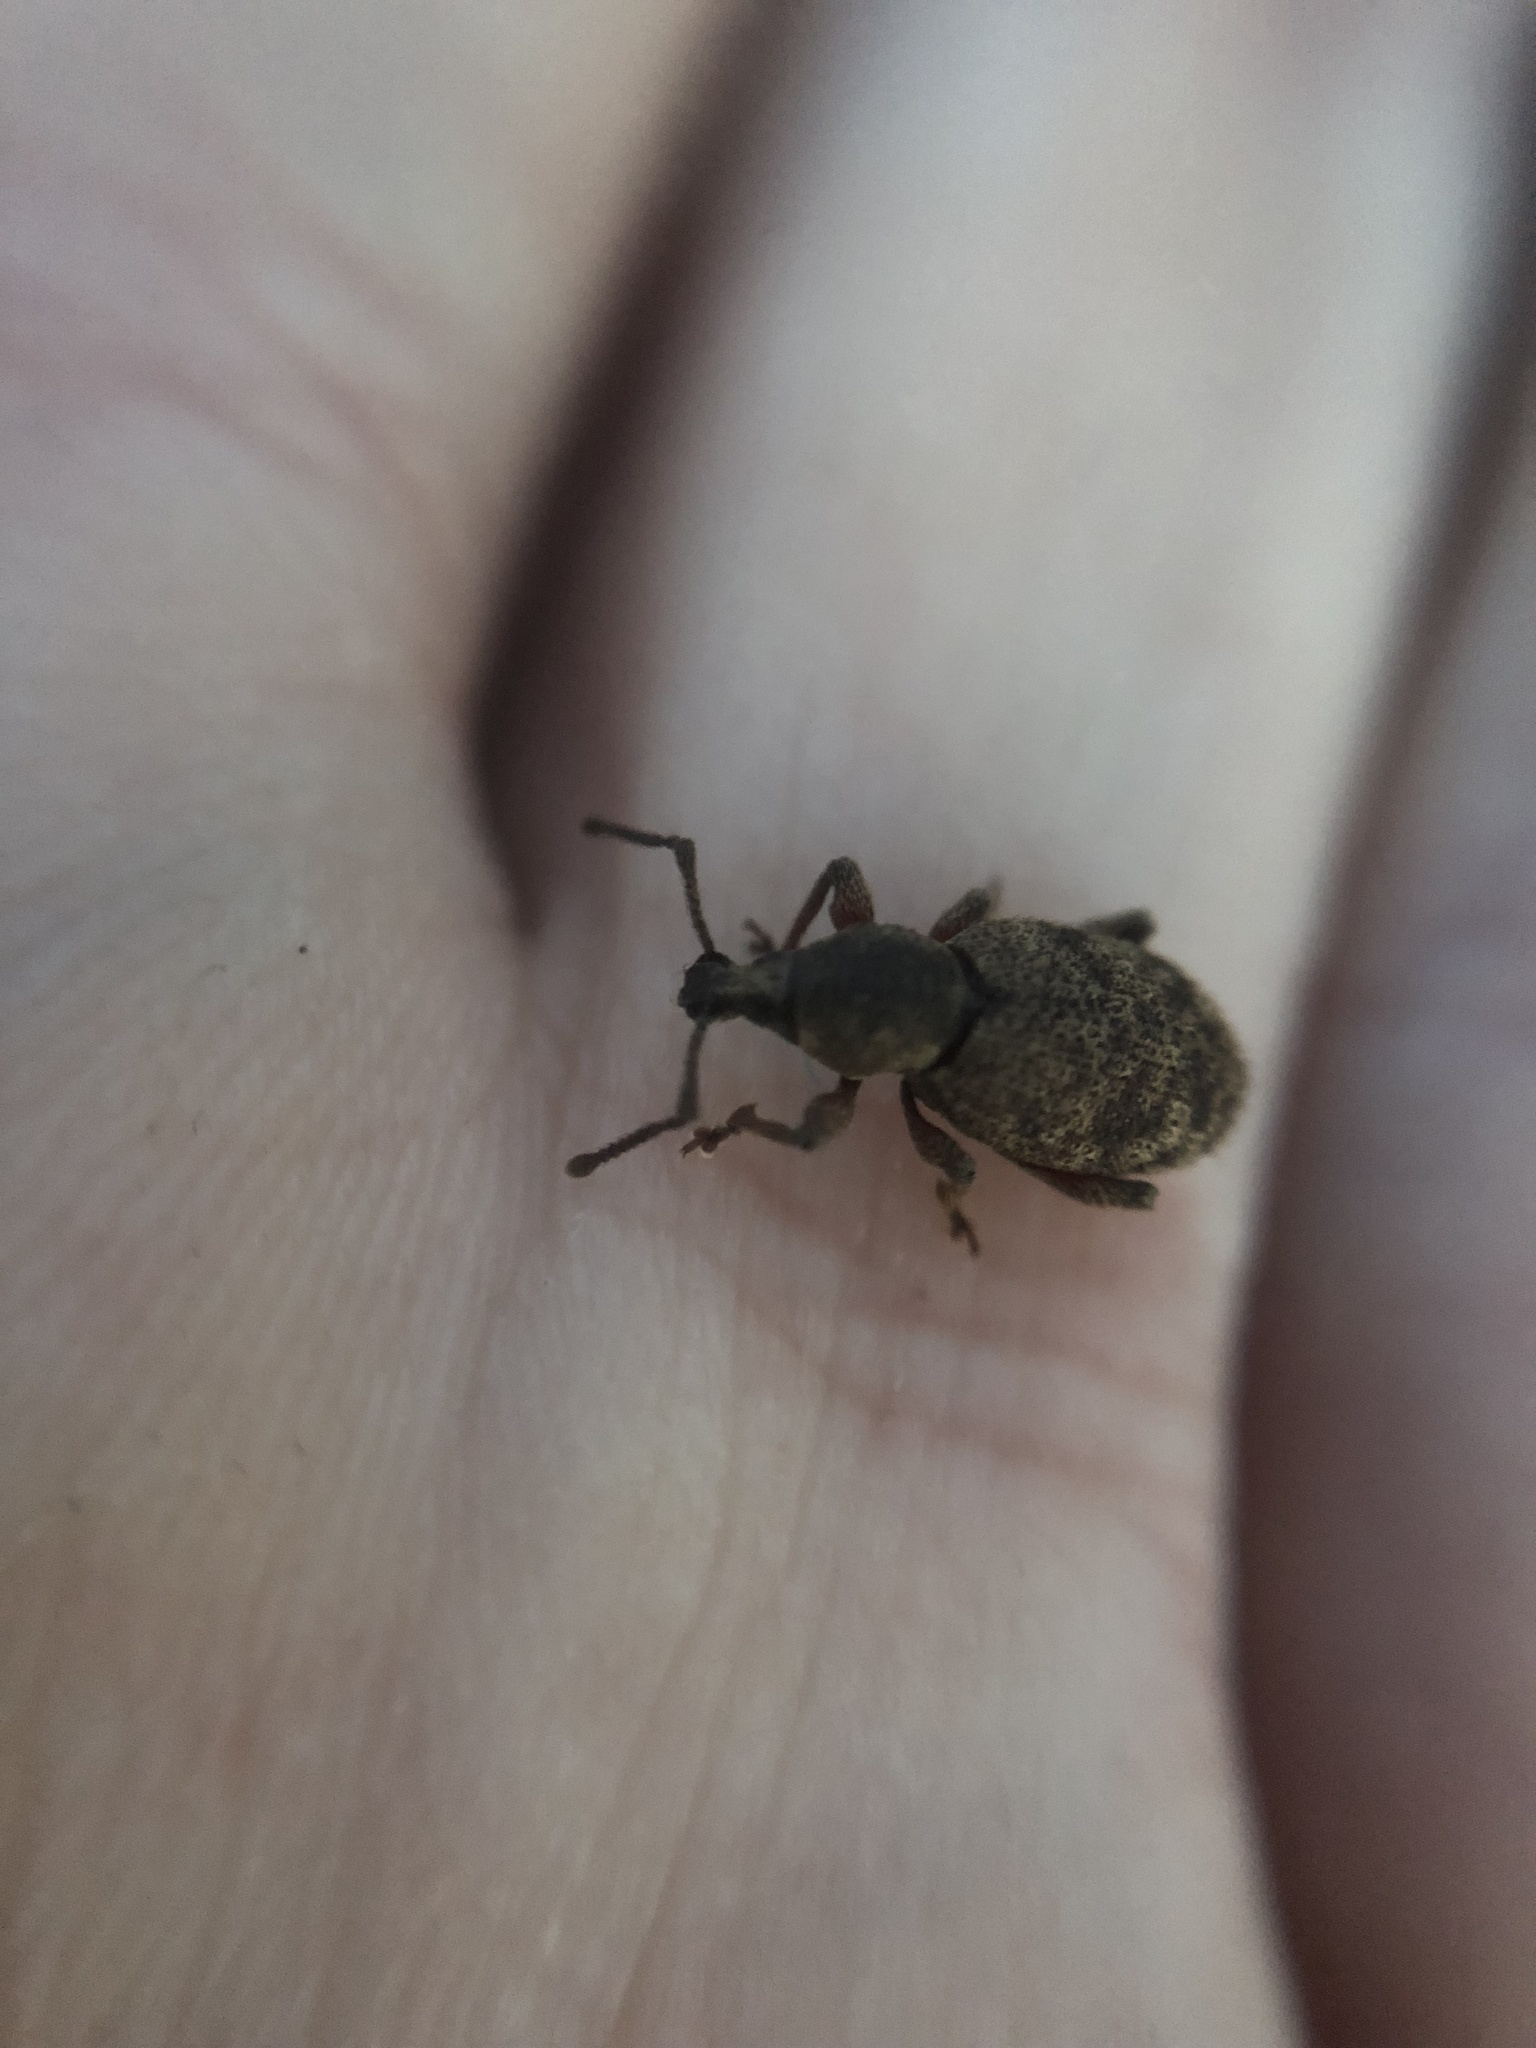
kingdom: Animalia
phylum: Arthropoda
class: Insecta
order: Coleoptera
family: Curculionidae
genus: Otiorhynchus
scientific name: Otiorhynchus singularis
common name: Clay-coloured weevil
